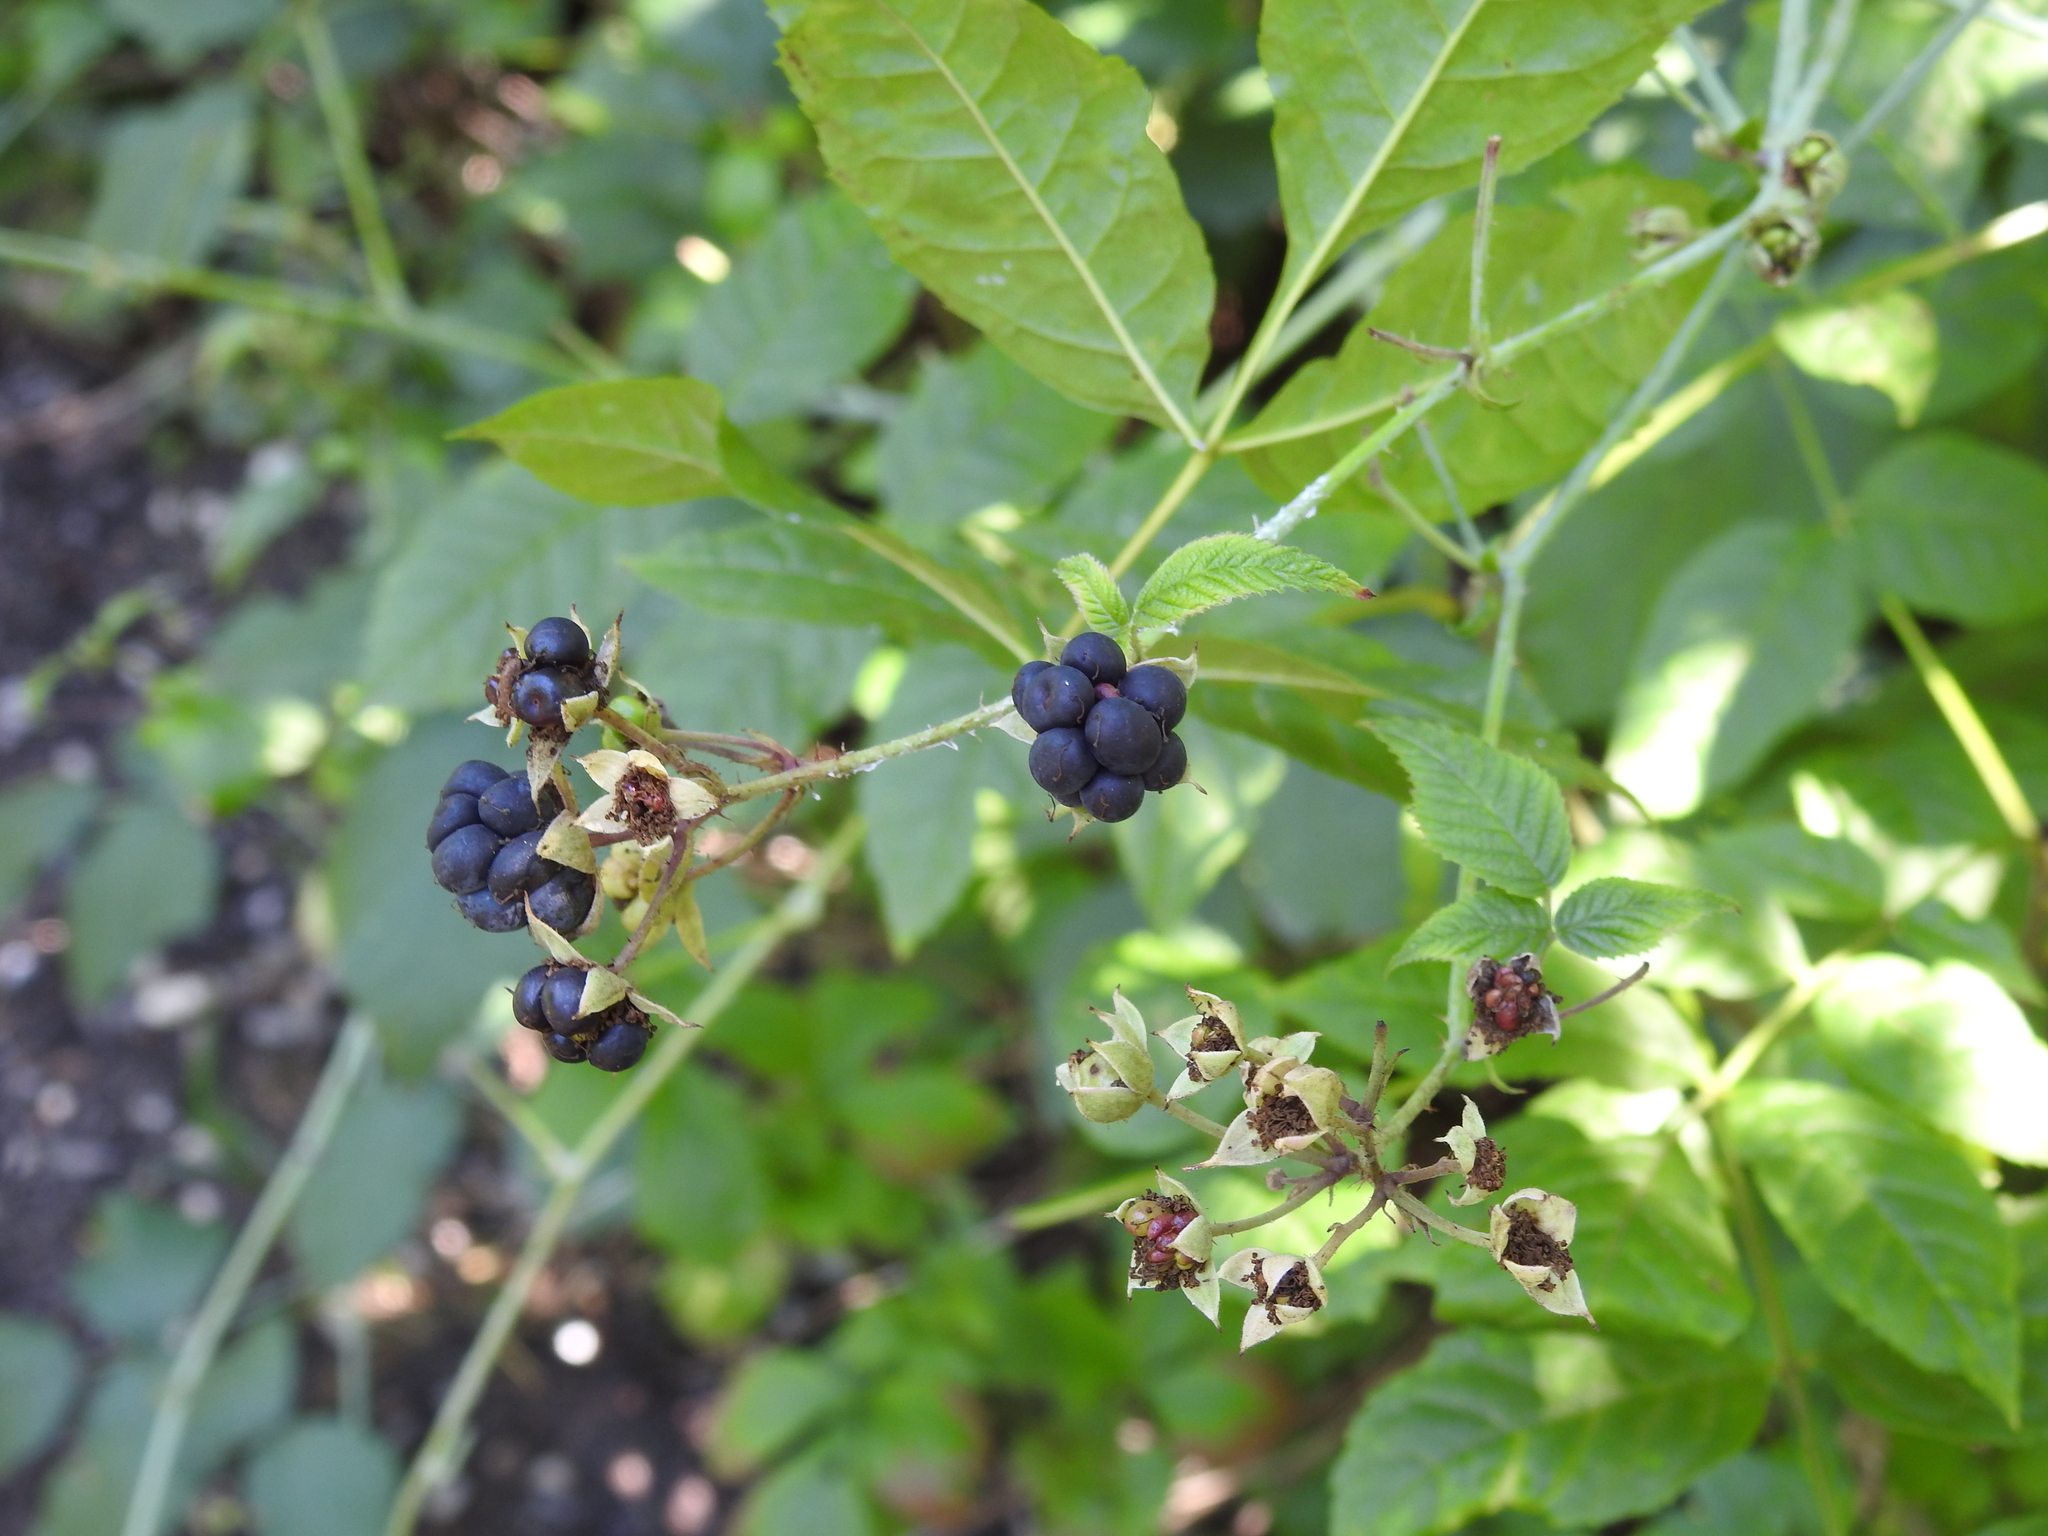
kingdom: Plantae
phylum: Tracheophyta
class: Magnoliopsida
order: Rosales
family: Rosaceae
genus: Rubus
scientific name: Rubus caesius
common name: Dewberry
